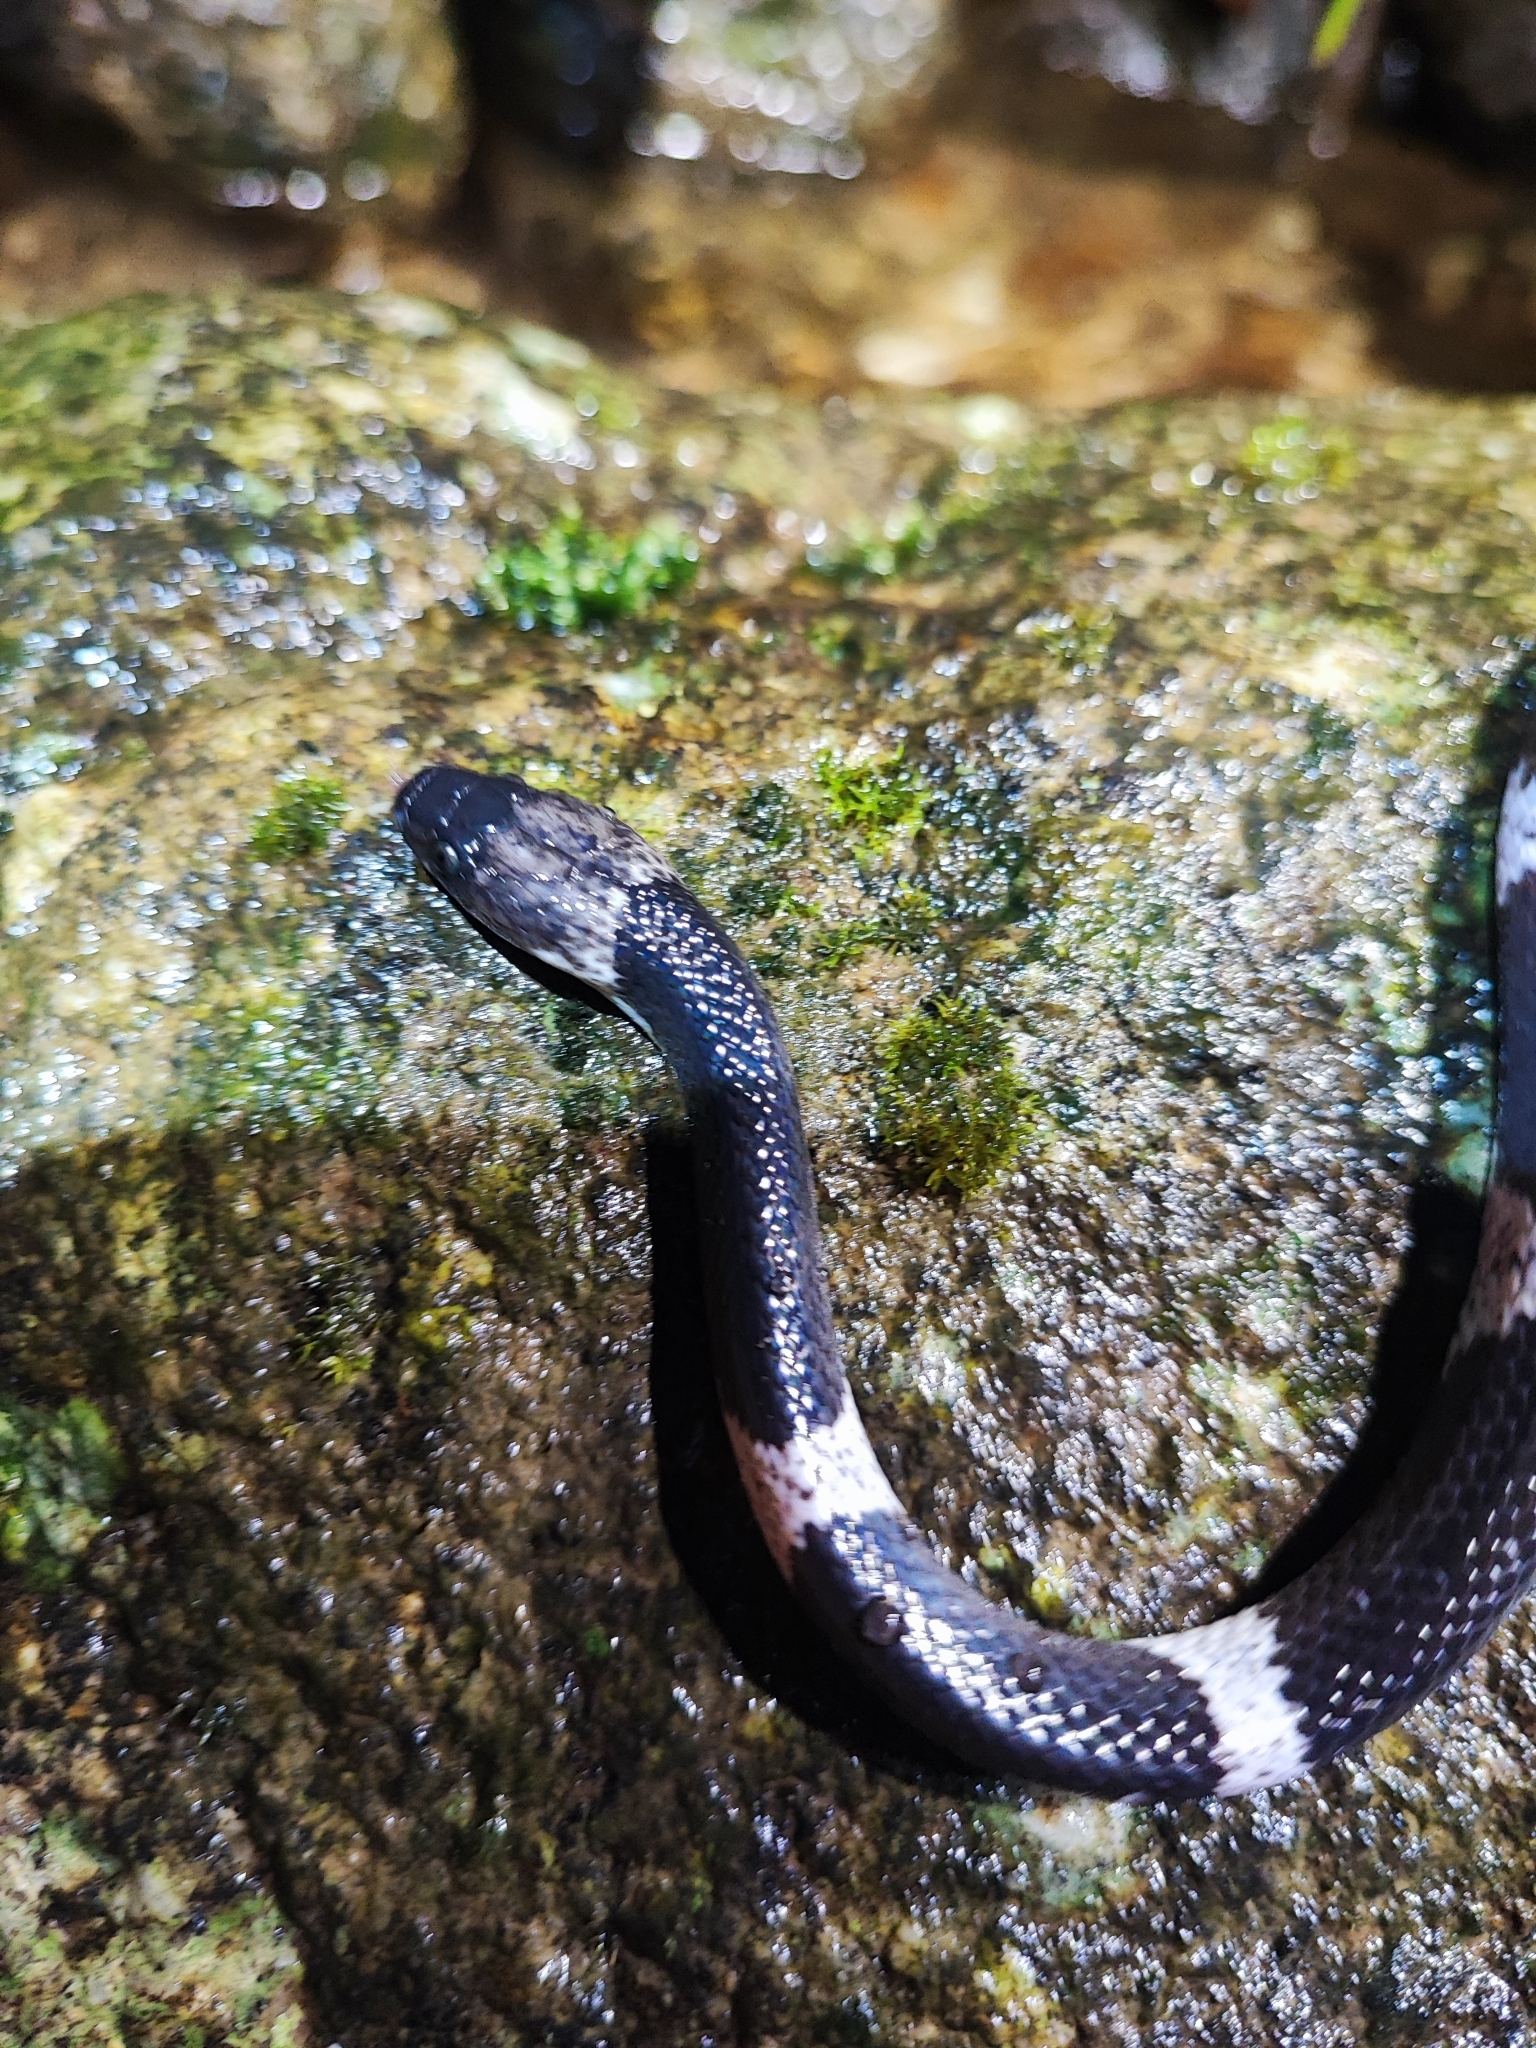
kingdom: Animalia
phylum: Chordata
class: Squamata
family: Colubridae
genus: Lycodon
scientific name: Lycodon truongi
